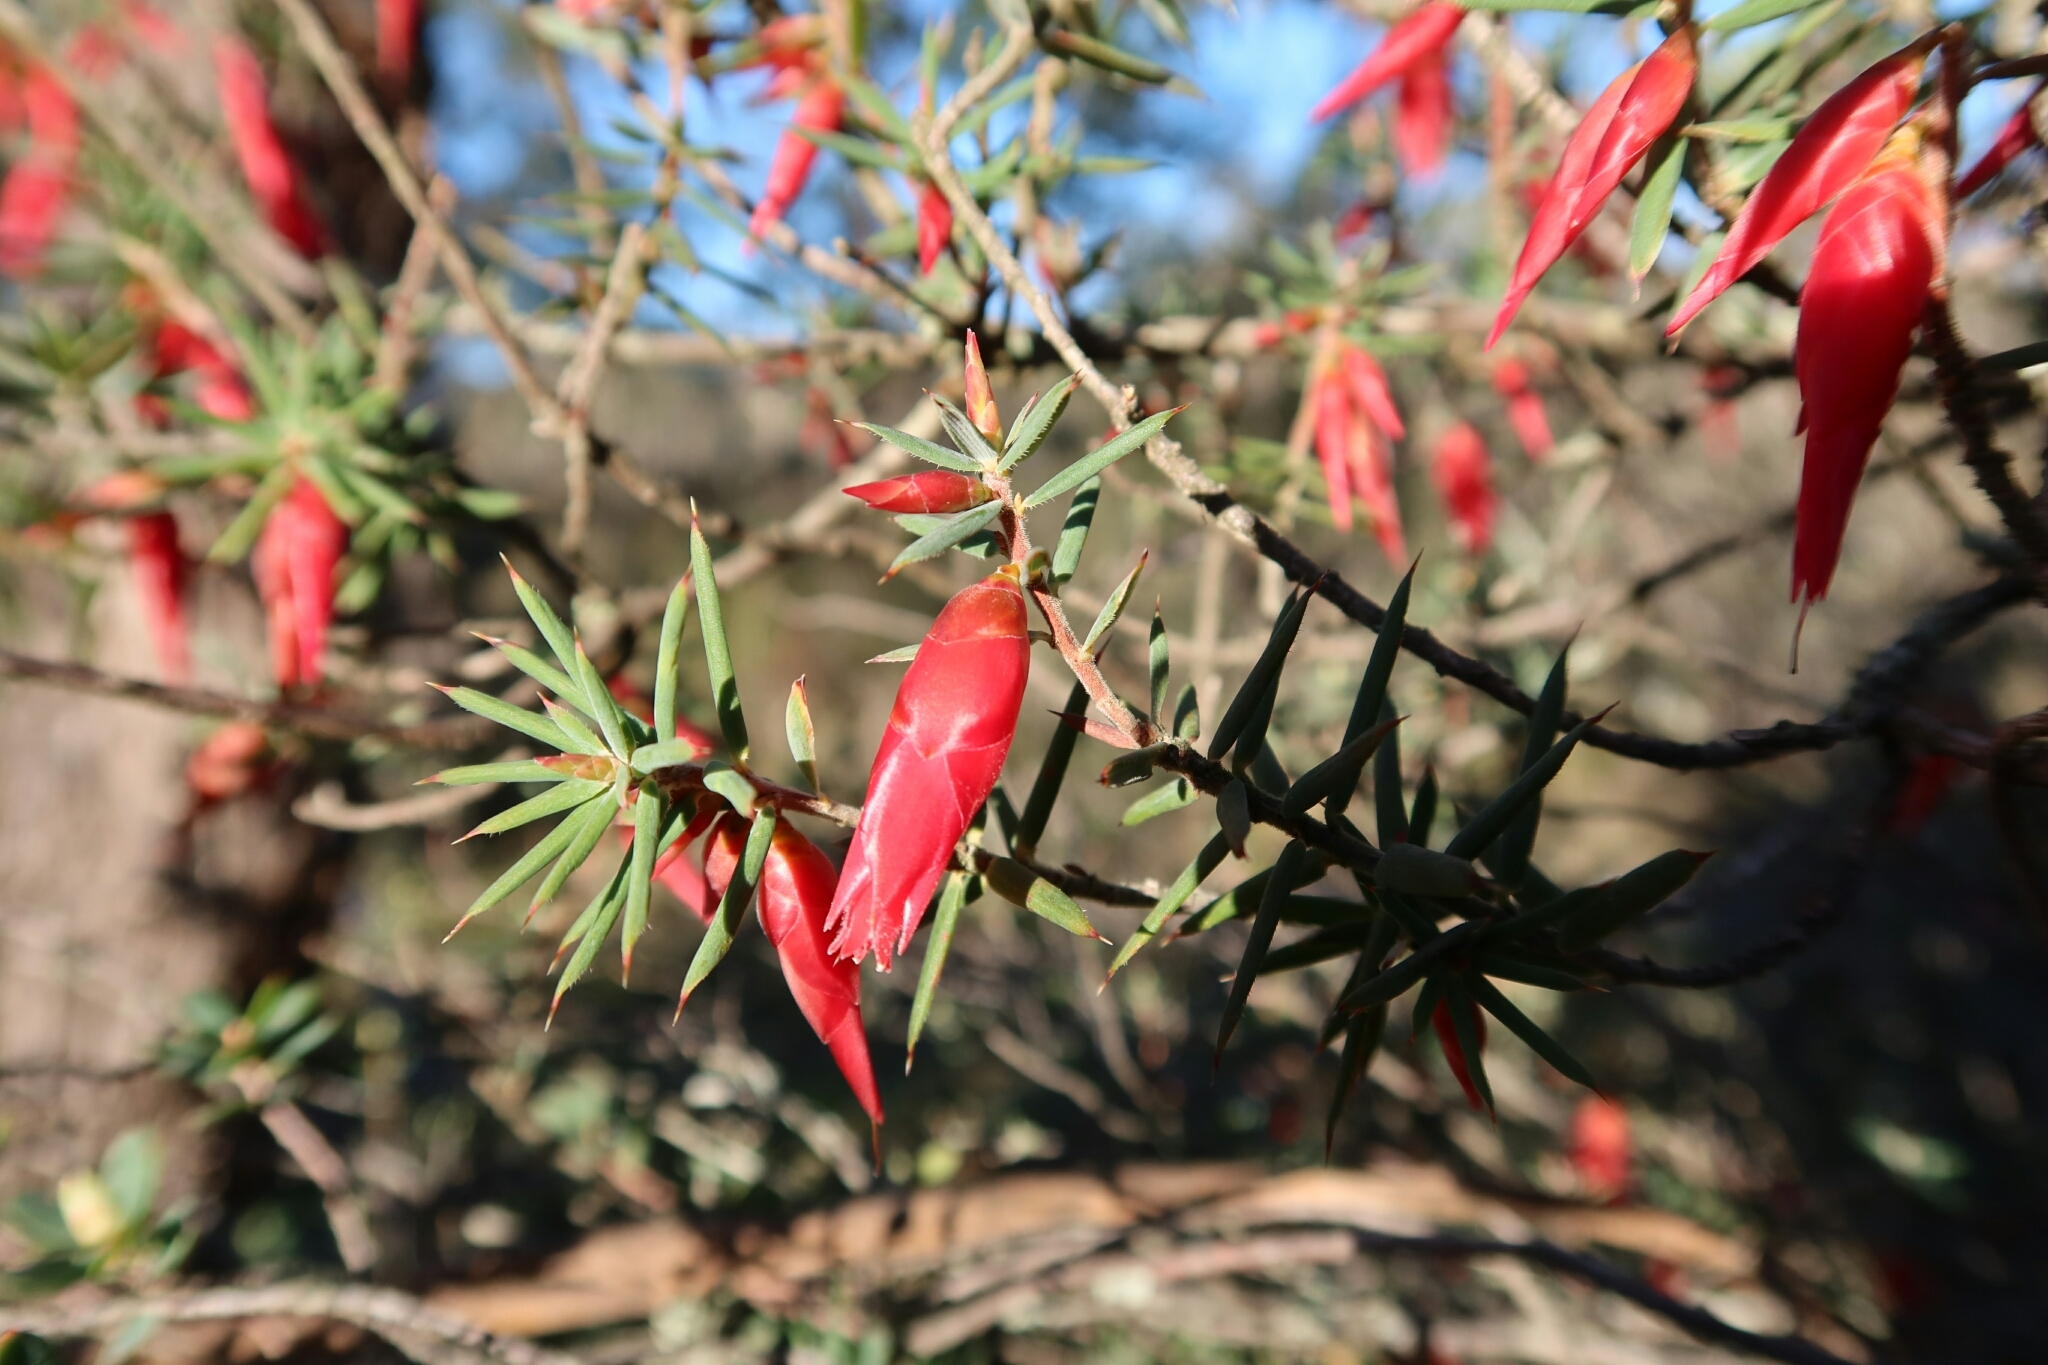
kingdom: Plantae
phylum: Tracheophyta
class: Magnoliopsida
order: Ericales
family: Ericaceae
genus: Stenanthera
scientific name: Stenanthera conostephioides
